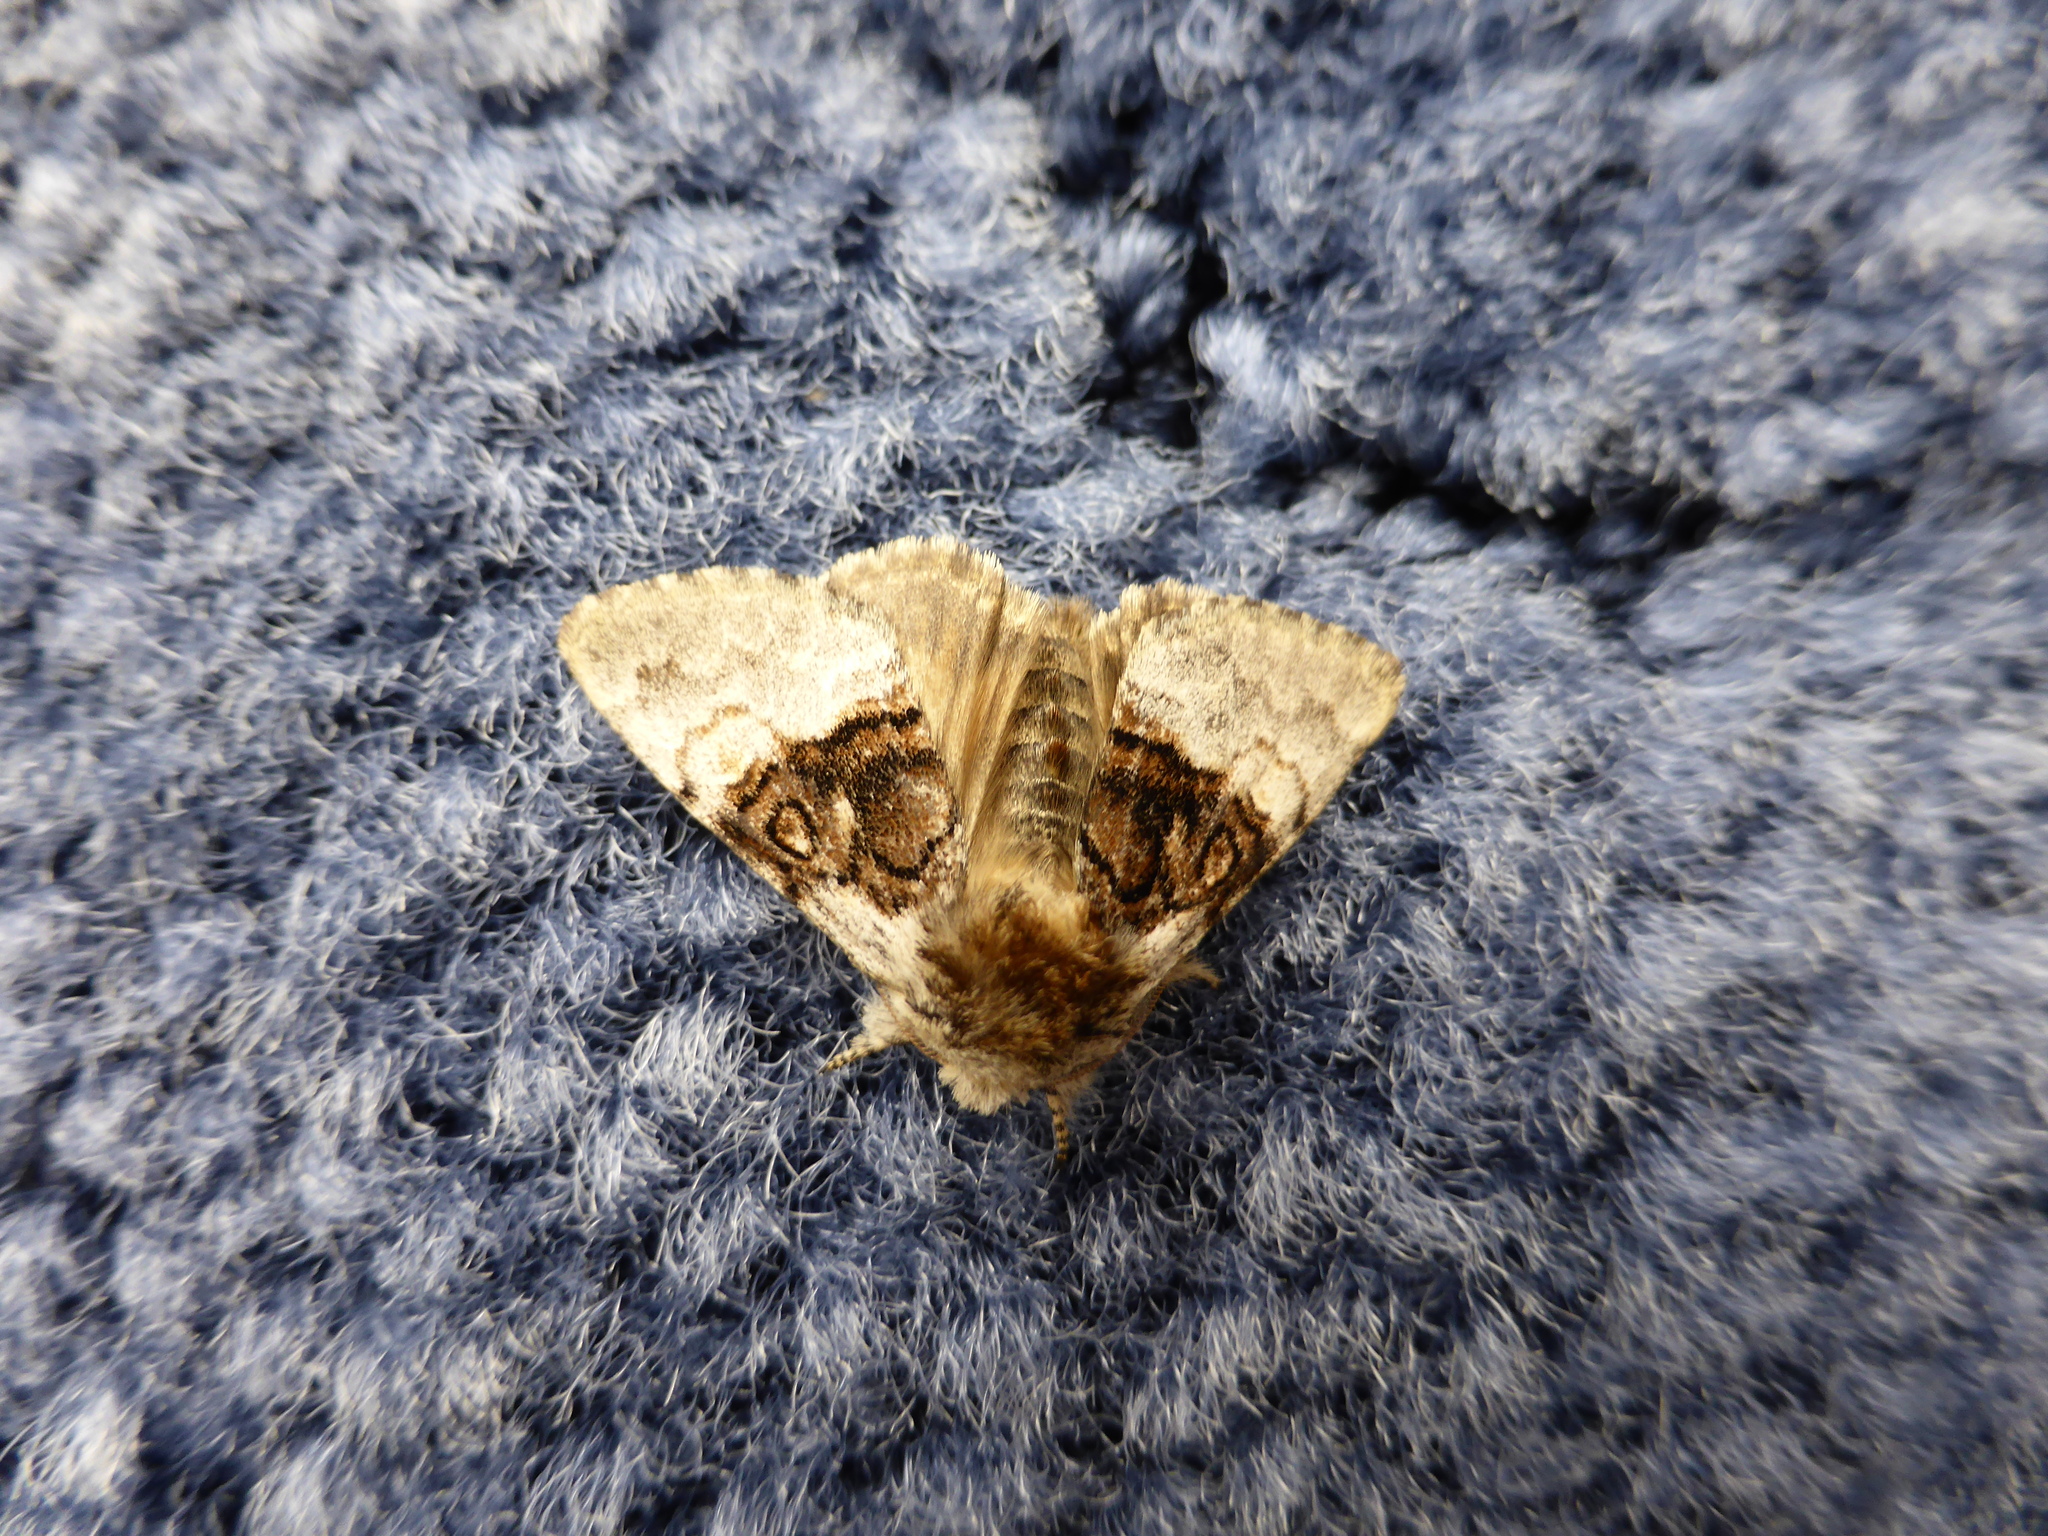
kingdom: Animalia
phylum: Arthropoda
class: Insecta
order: Lepidoptera
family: Noctuidae
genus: Colocasia
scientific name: Colocasia coryli
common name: Nut-tree tussock
